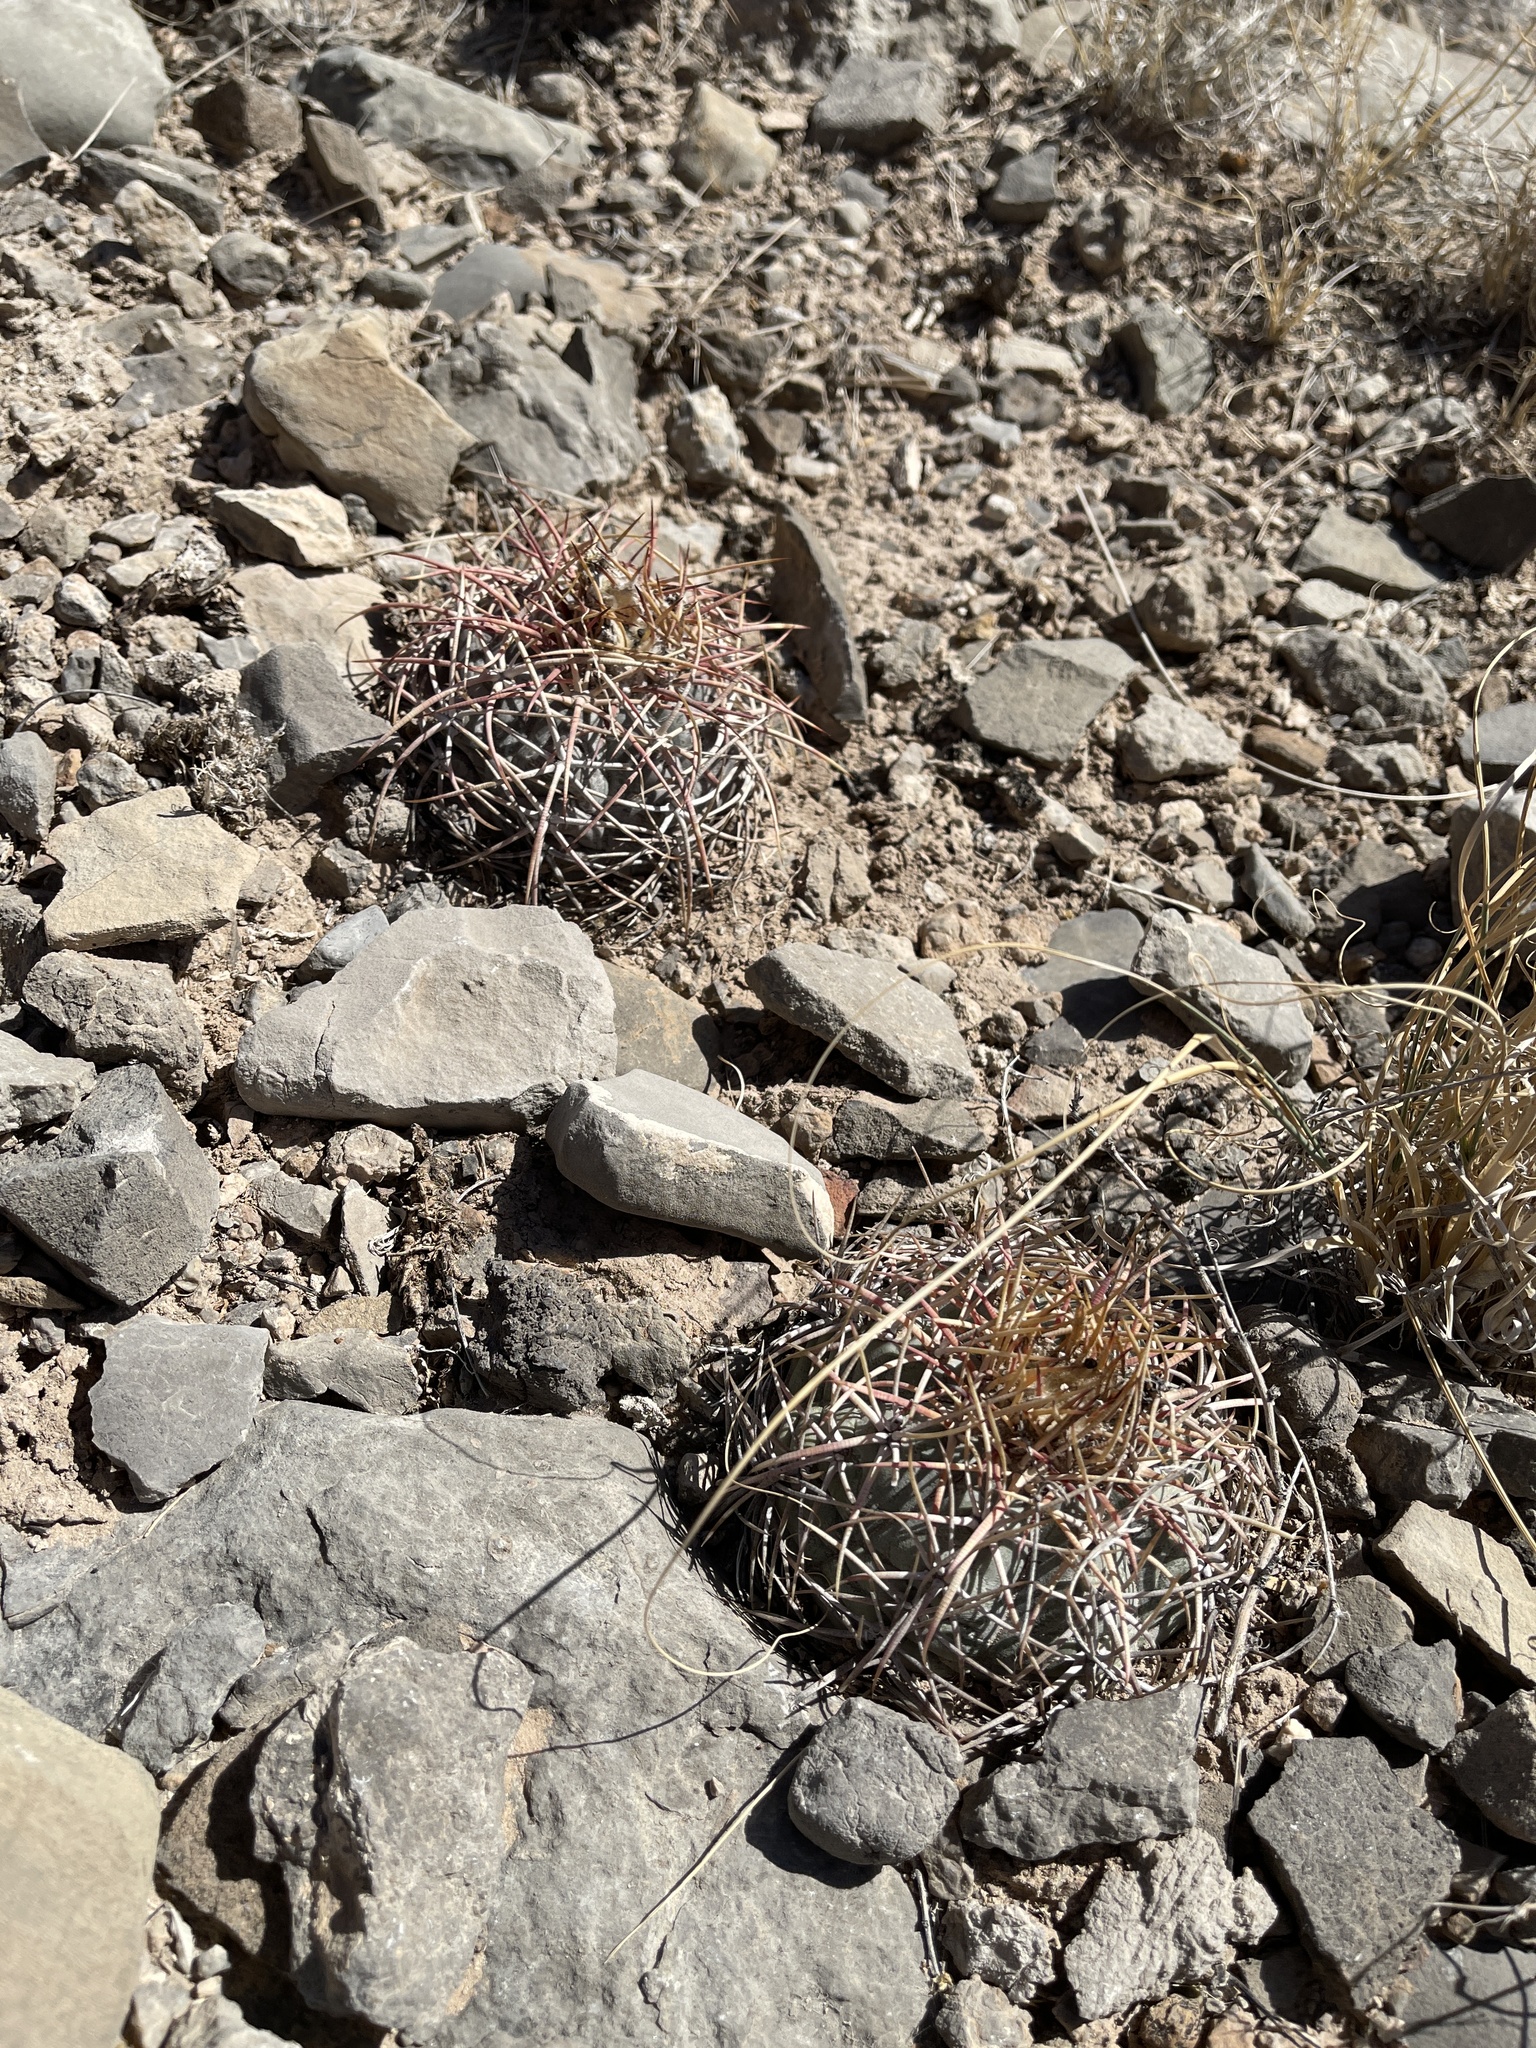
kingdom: Plantae
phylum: Tracheophyta
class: Magnoliopsida
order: Caryophyllales
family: Cactaceae
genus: Echinocactus
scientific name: Echinocactus horizonthalonius
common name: Devilshead
